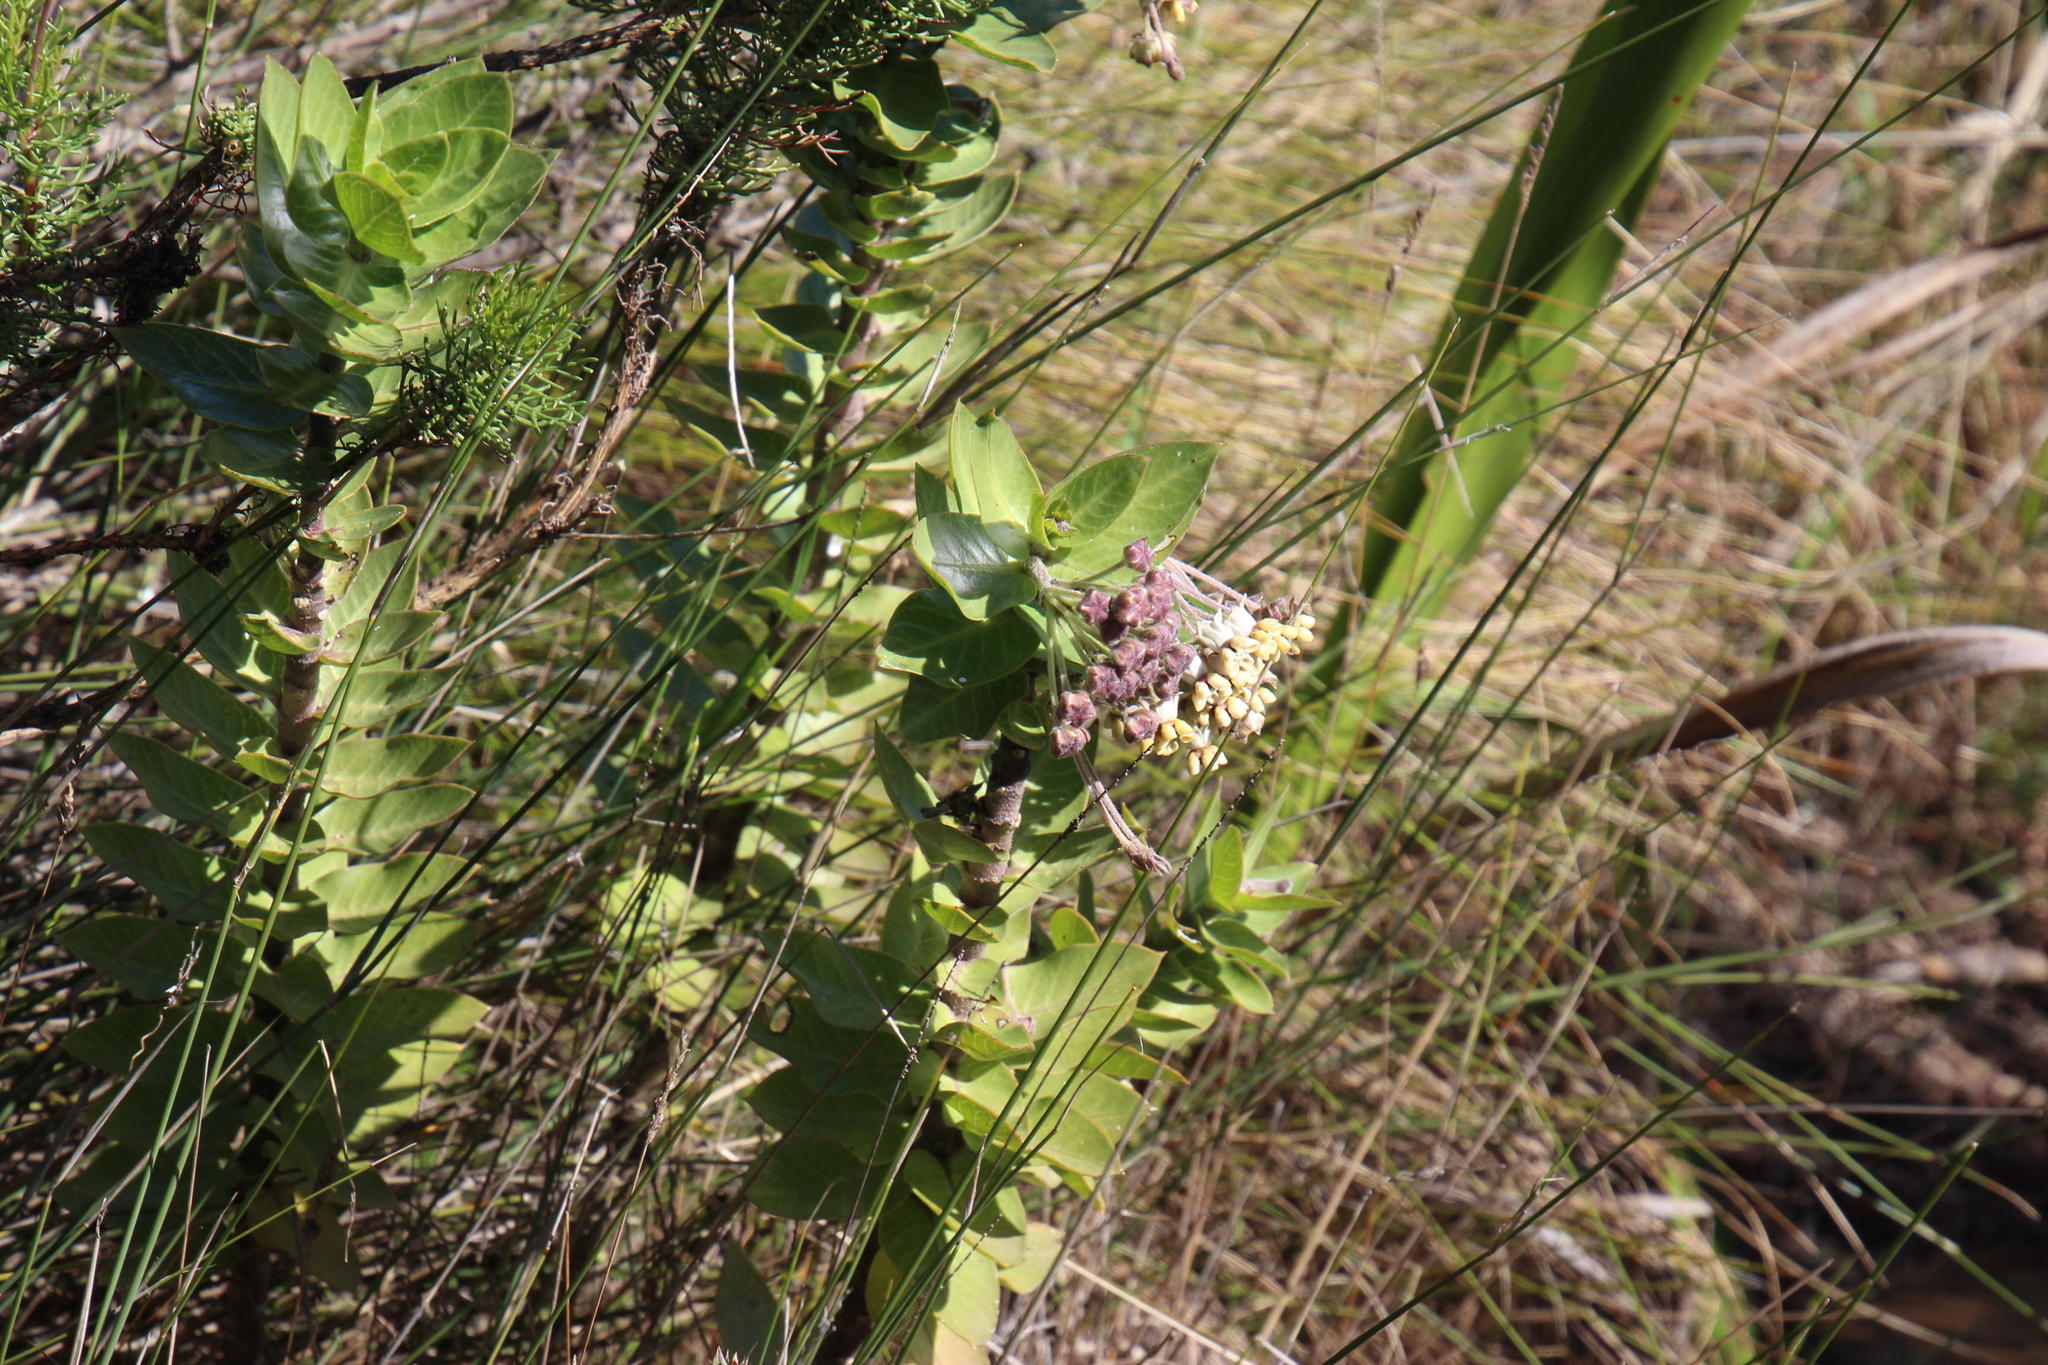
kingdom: Plantae
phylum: Tracheophyta
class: Magnoliopsida
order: Gentianales
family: Apocynaceae
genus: Gomphocarpus
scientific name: Gomphocarpus cancellatus
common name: Wild cotton
